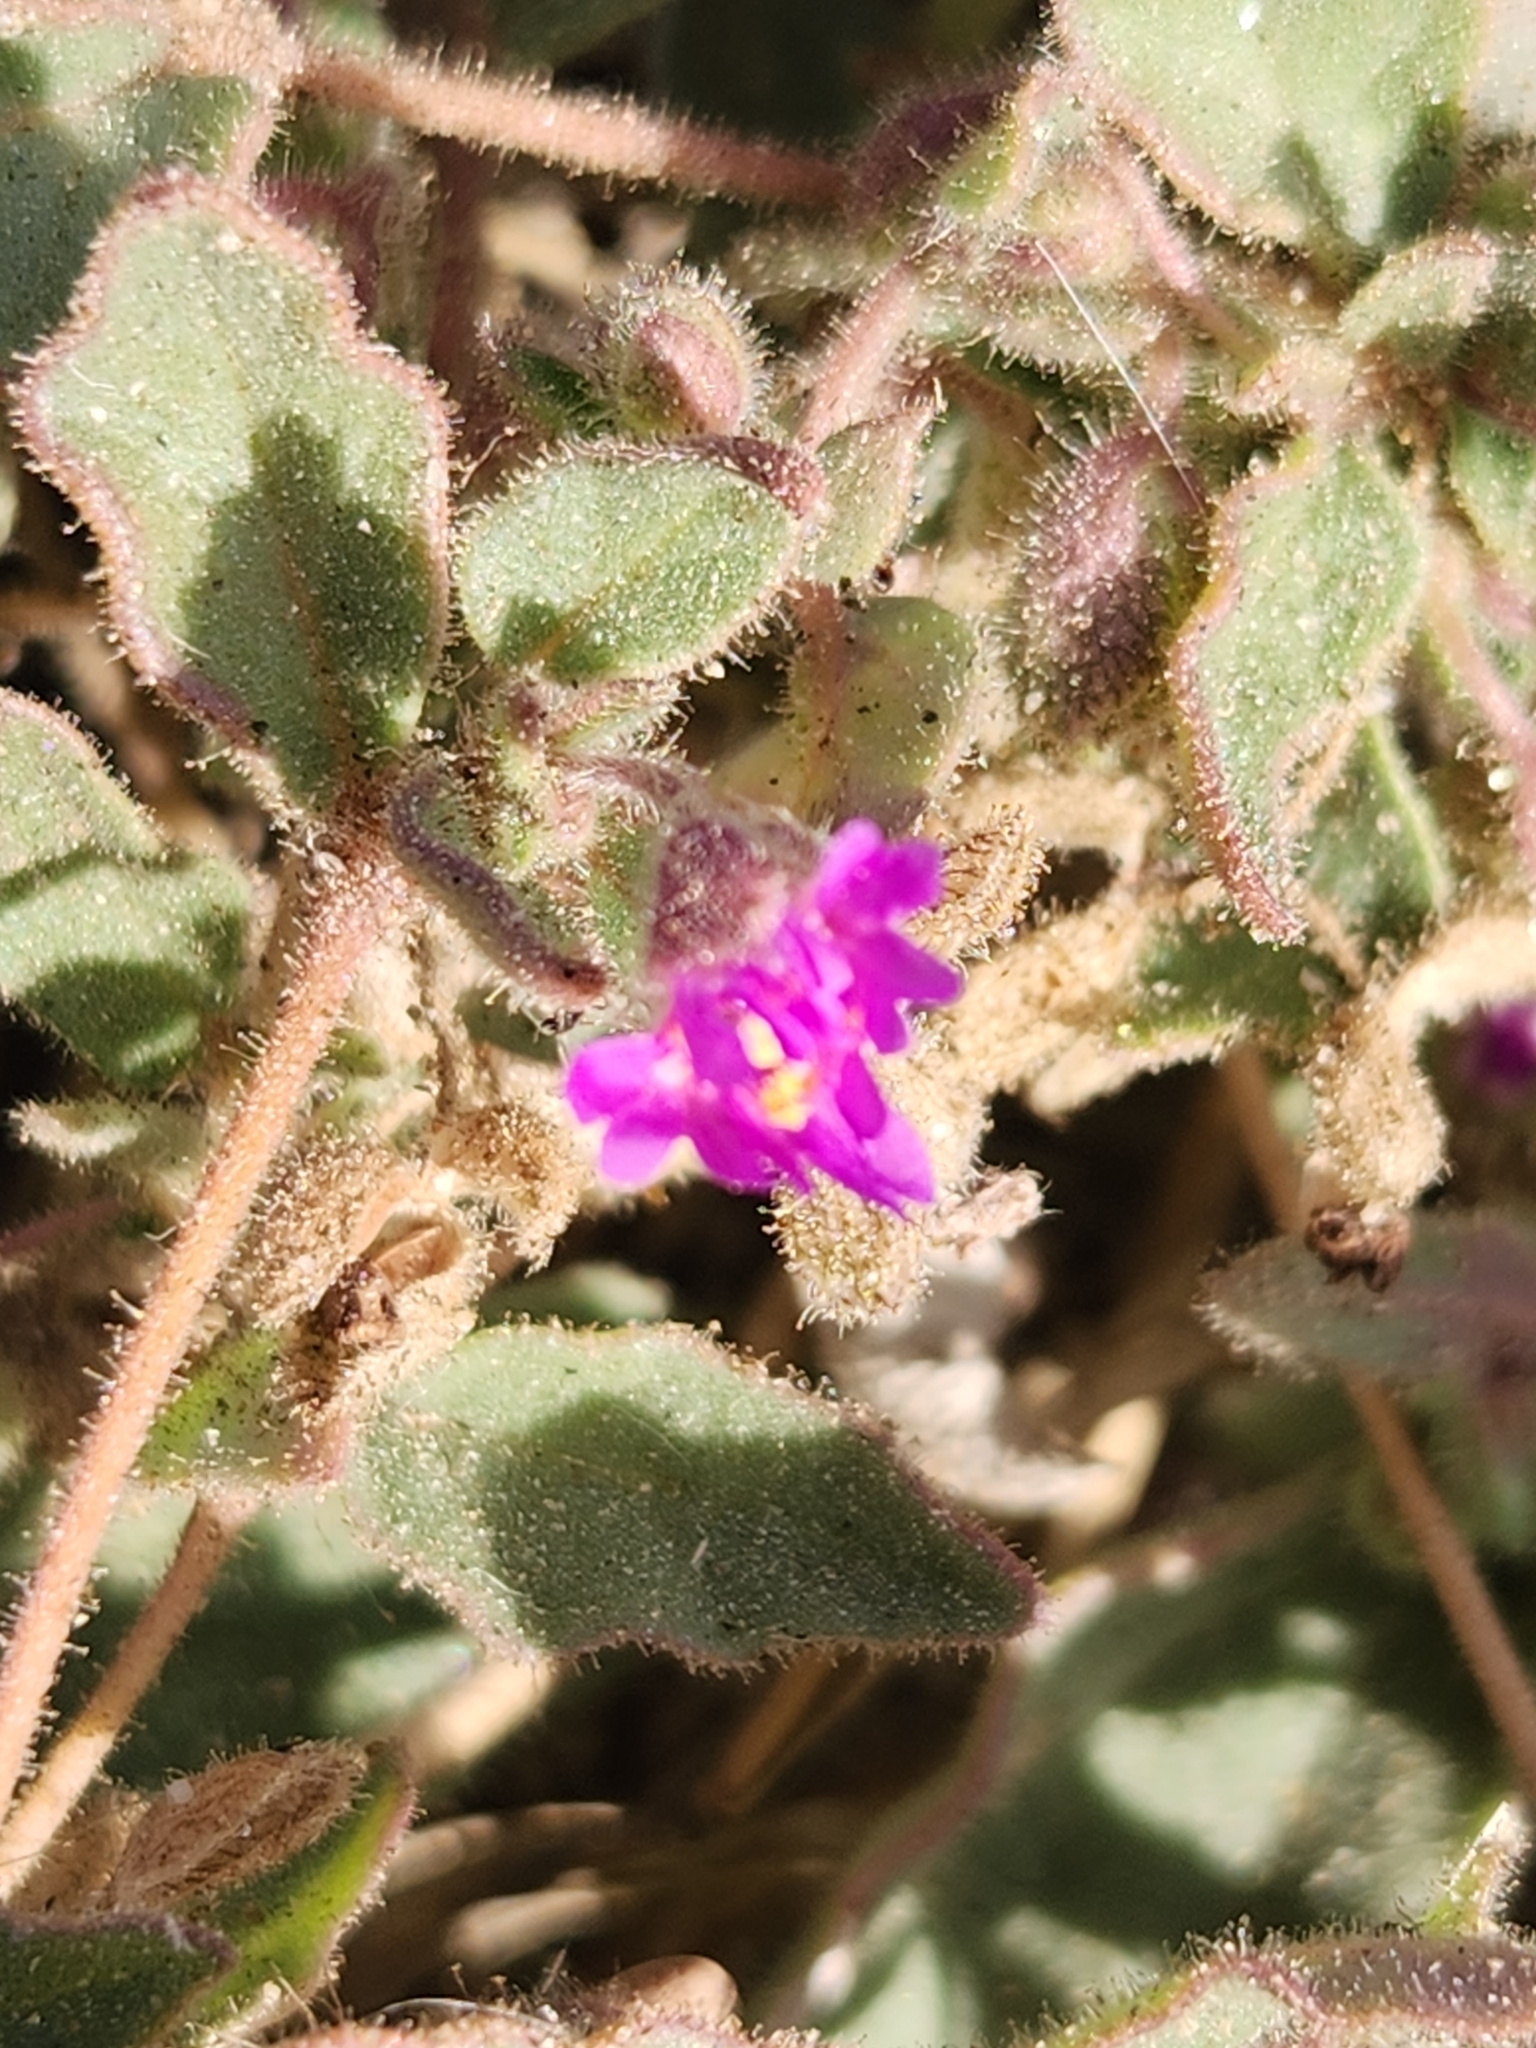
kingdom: Plantae
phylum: Tracheophyta
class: Magnoliopsida
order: Caryophyllales
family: Nyctaginaceae
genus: Allionia
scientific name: Allionia incarnata
